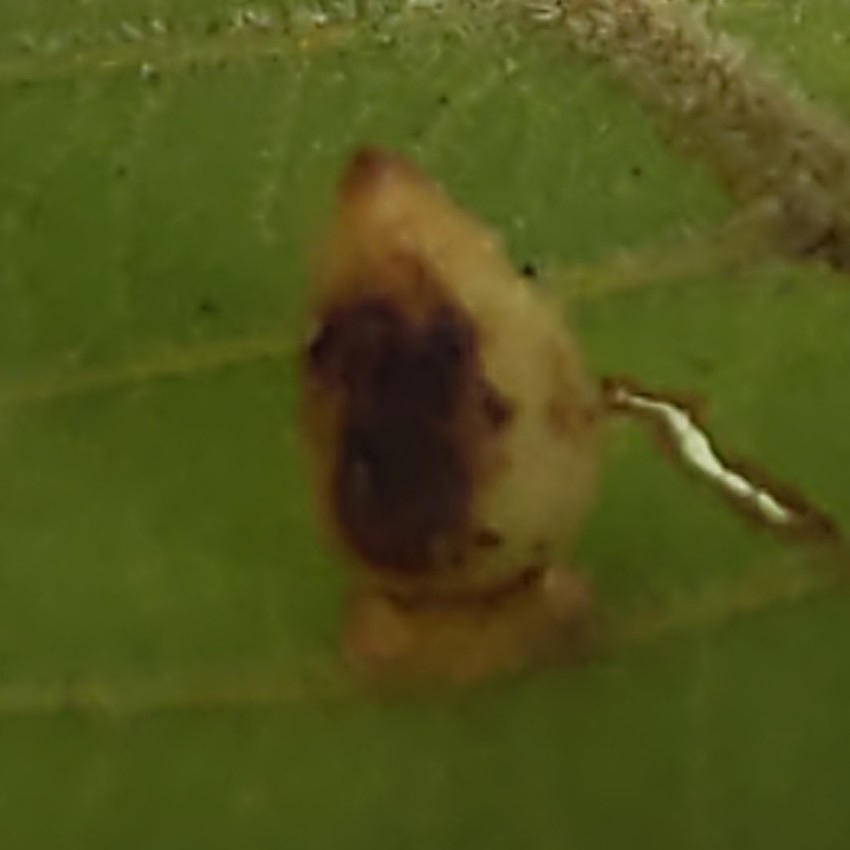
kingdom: Animalia
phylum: Arthropoda
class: Insecta
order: Diptera
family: Cecidomyiidae
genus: Caryomyia
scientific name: Caryomyia lenta
